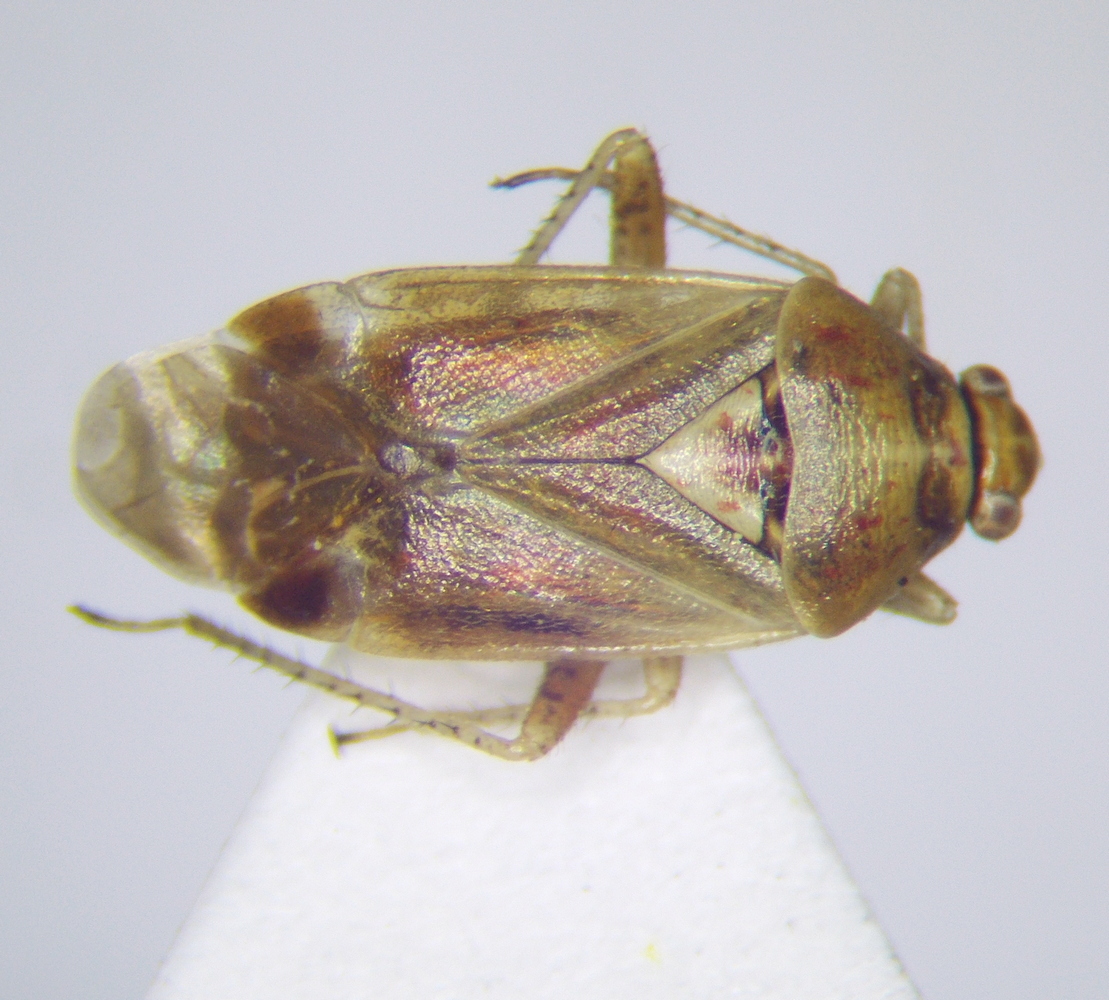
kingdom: Animalia
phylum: Arthropoda
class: Insecta
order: Hemiptera
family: Miridae
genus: Harpocera
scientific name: Harpocera hellenica
